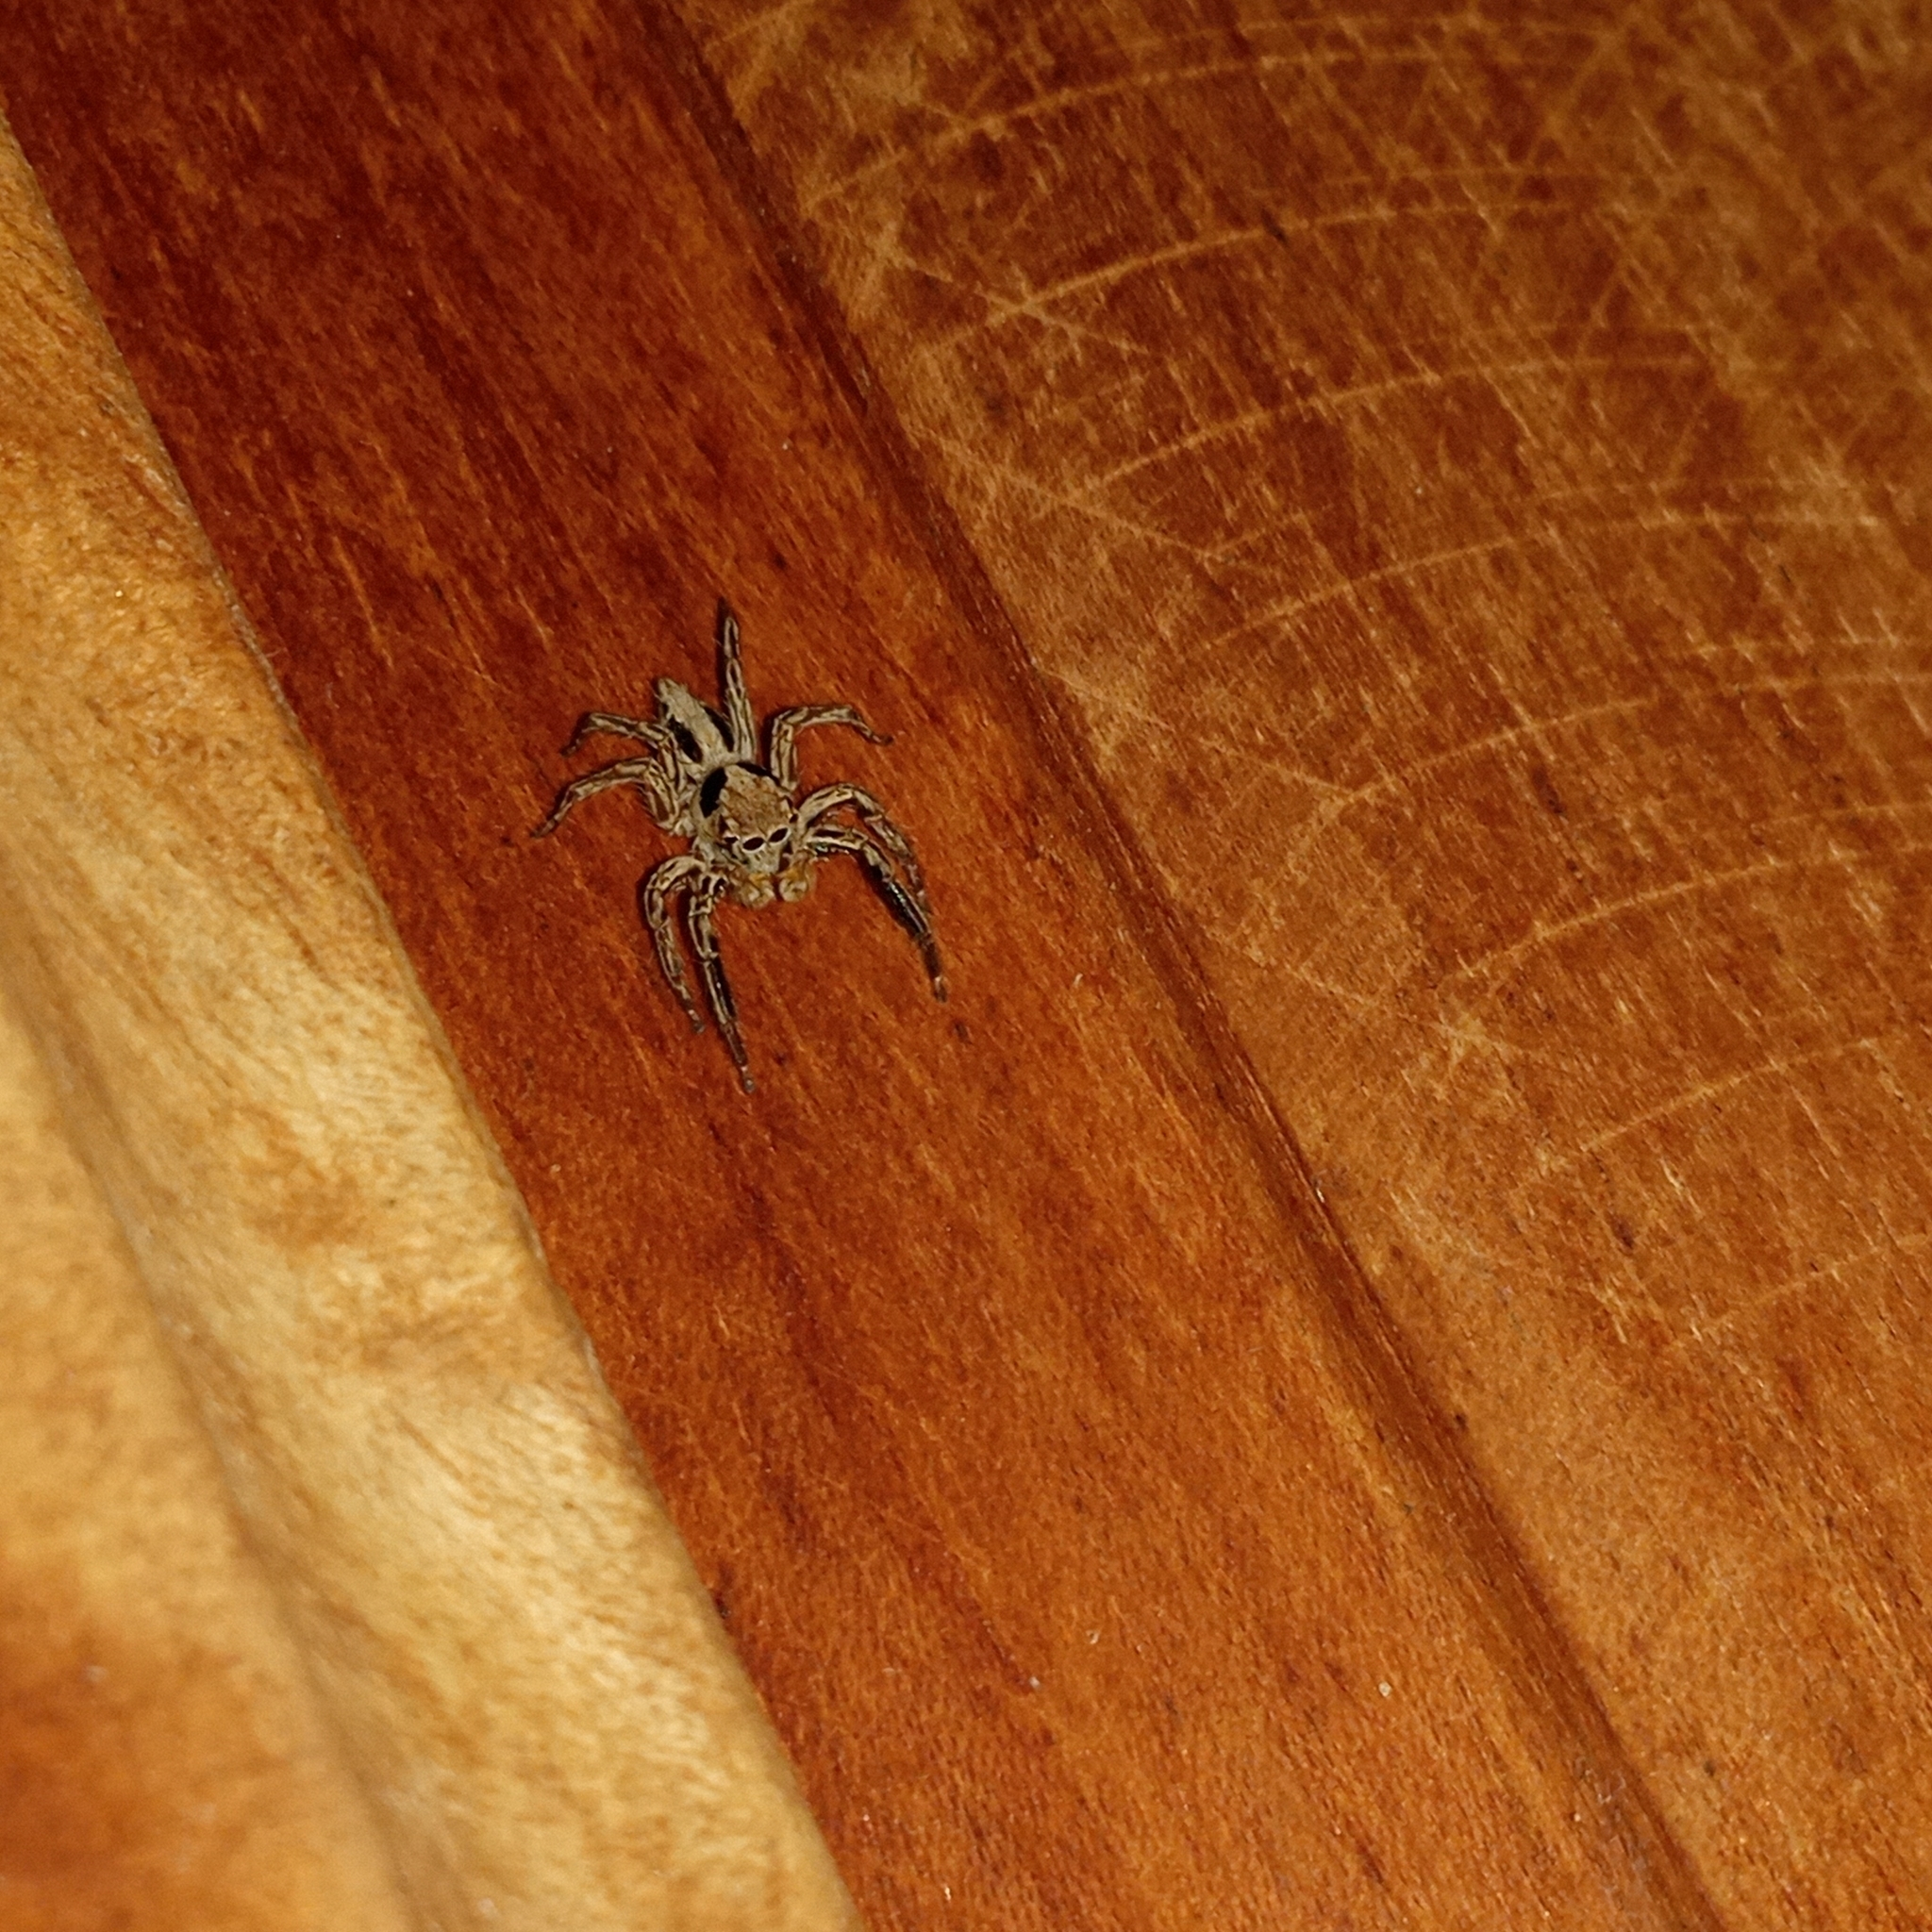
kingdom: Animalia
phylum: Arthropoda
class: Arachnida
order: Araneae
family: Salticidae
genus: Plexippus
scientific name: Plexippus petersi
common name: Jumping spider
